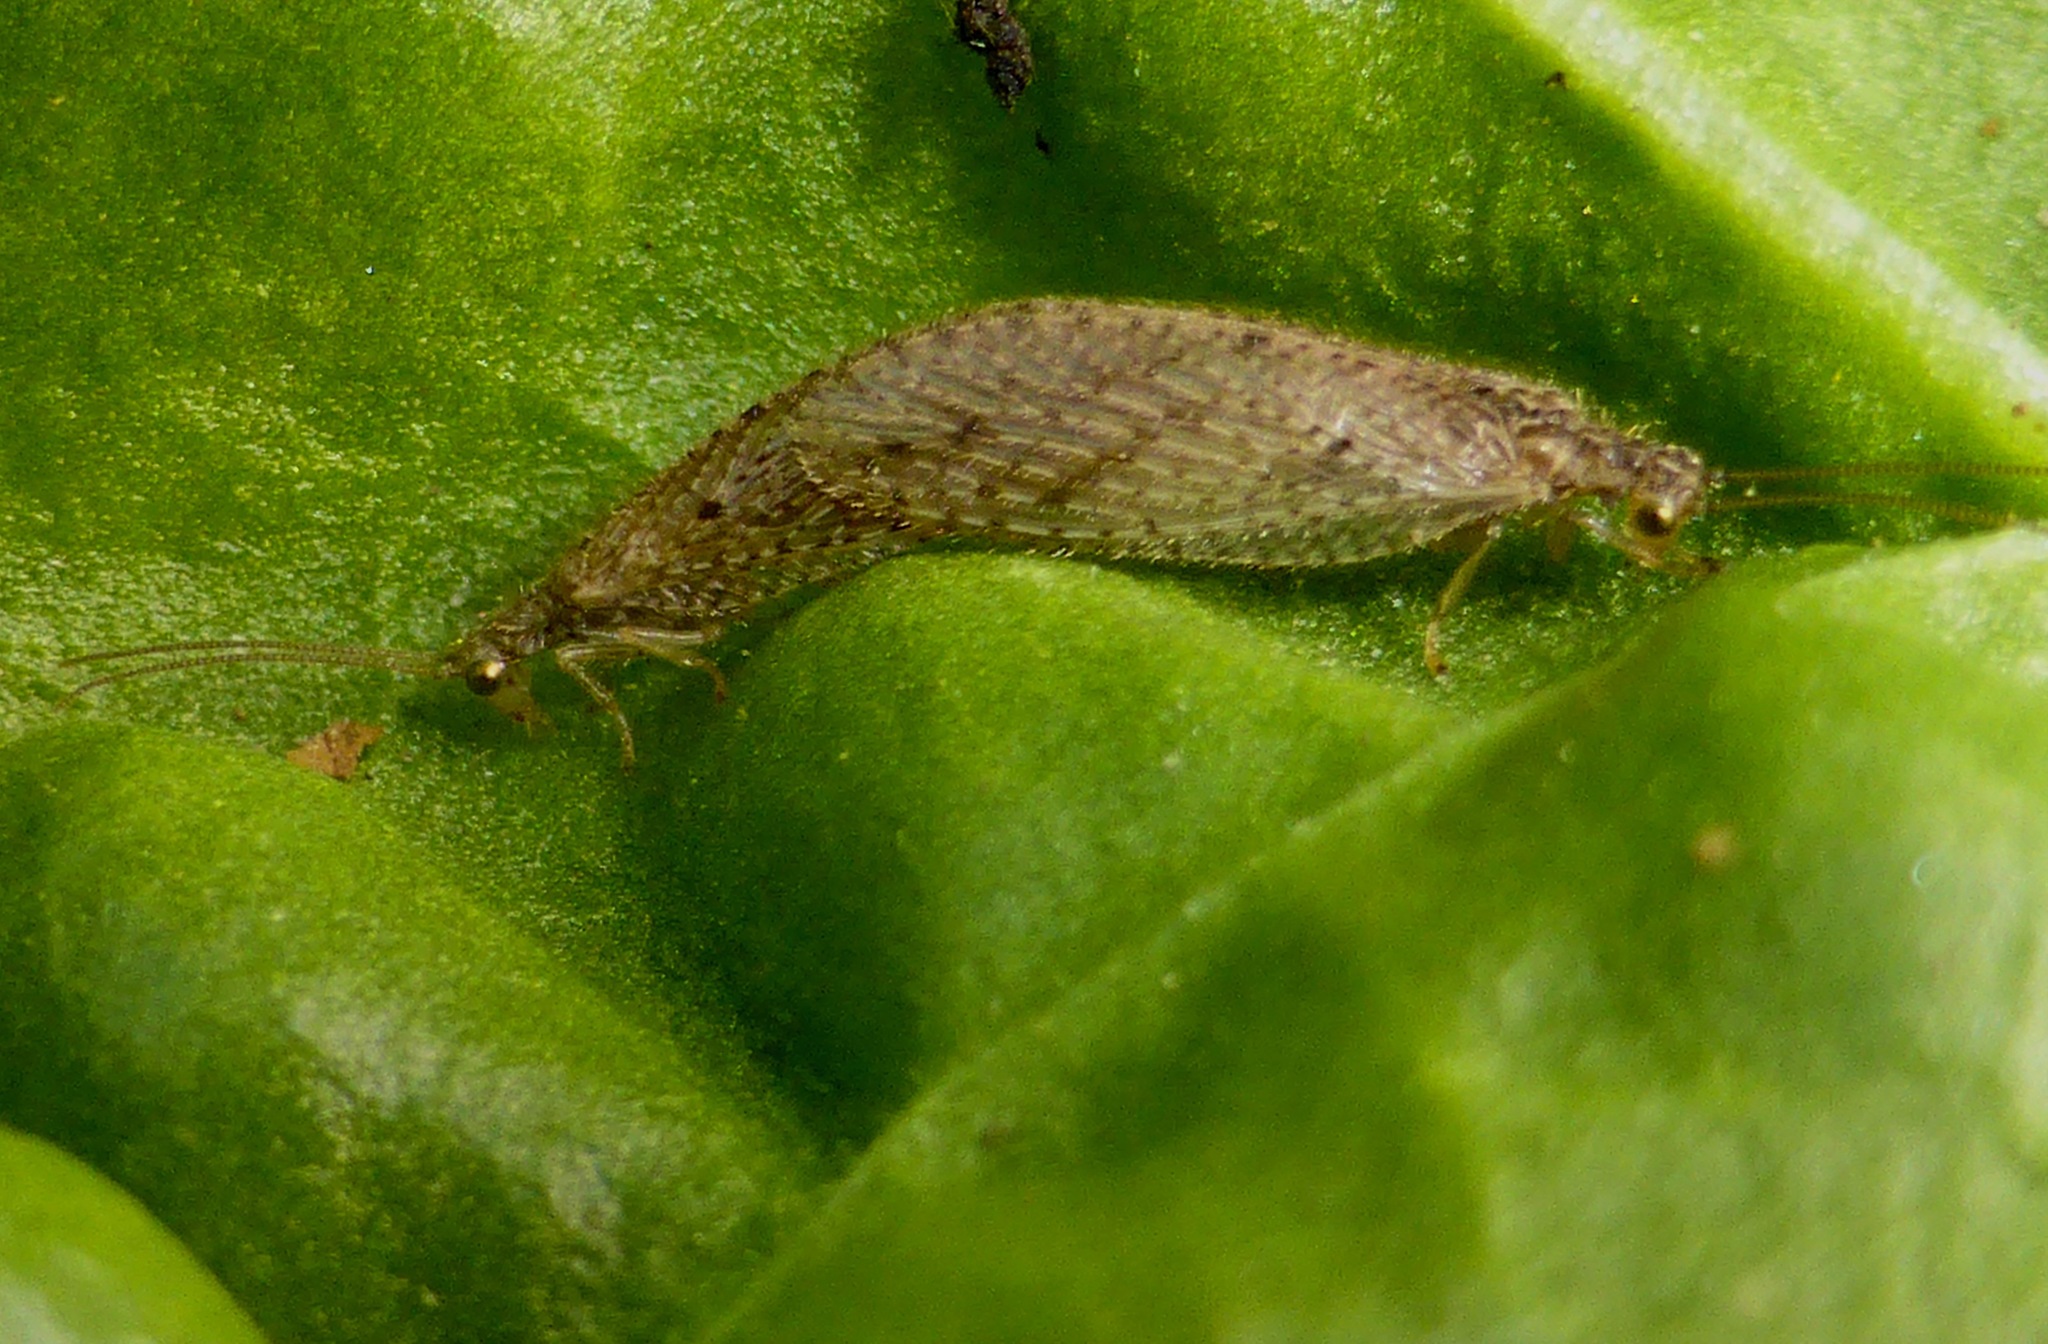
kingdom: Animalia
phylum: Arthropoda
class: Insecta
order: Neuroptera
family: Hemerobiidae
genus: Micromus
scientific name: Micromus tasmaniae
